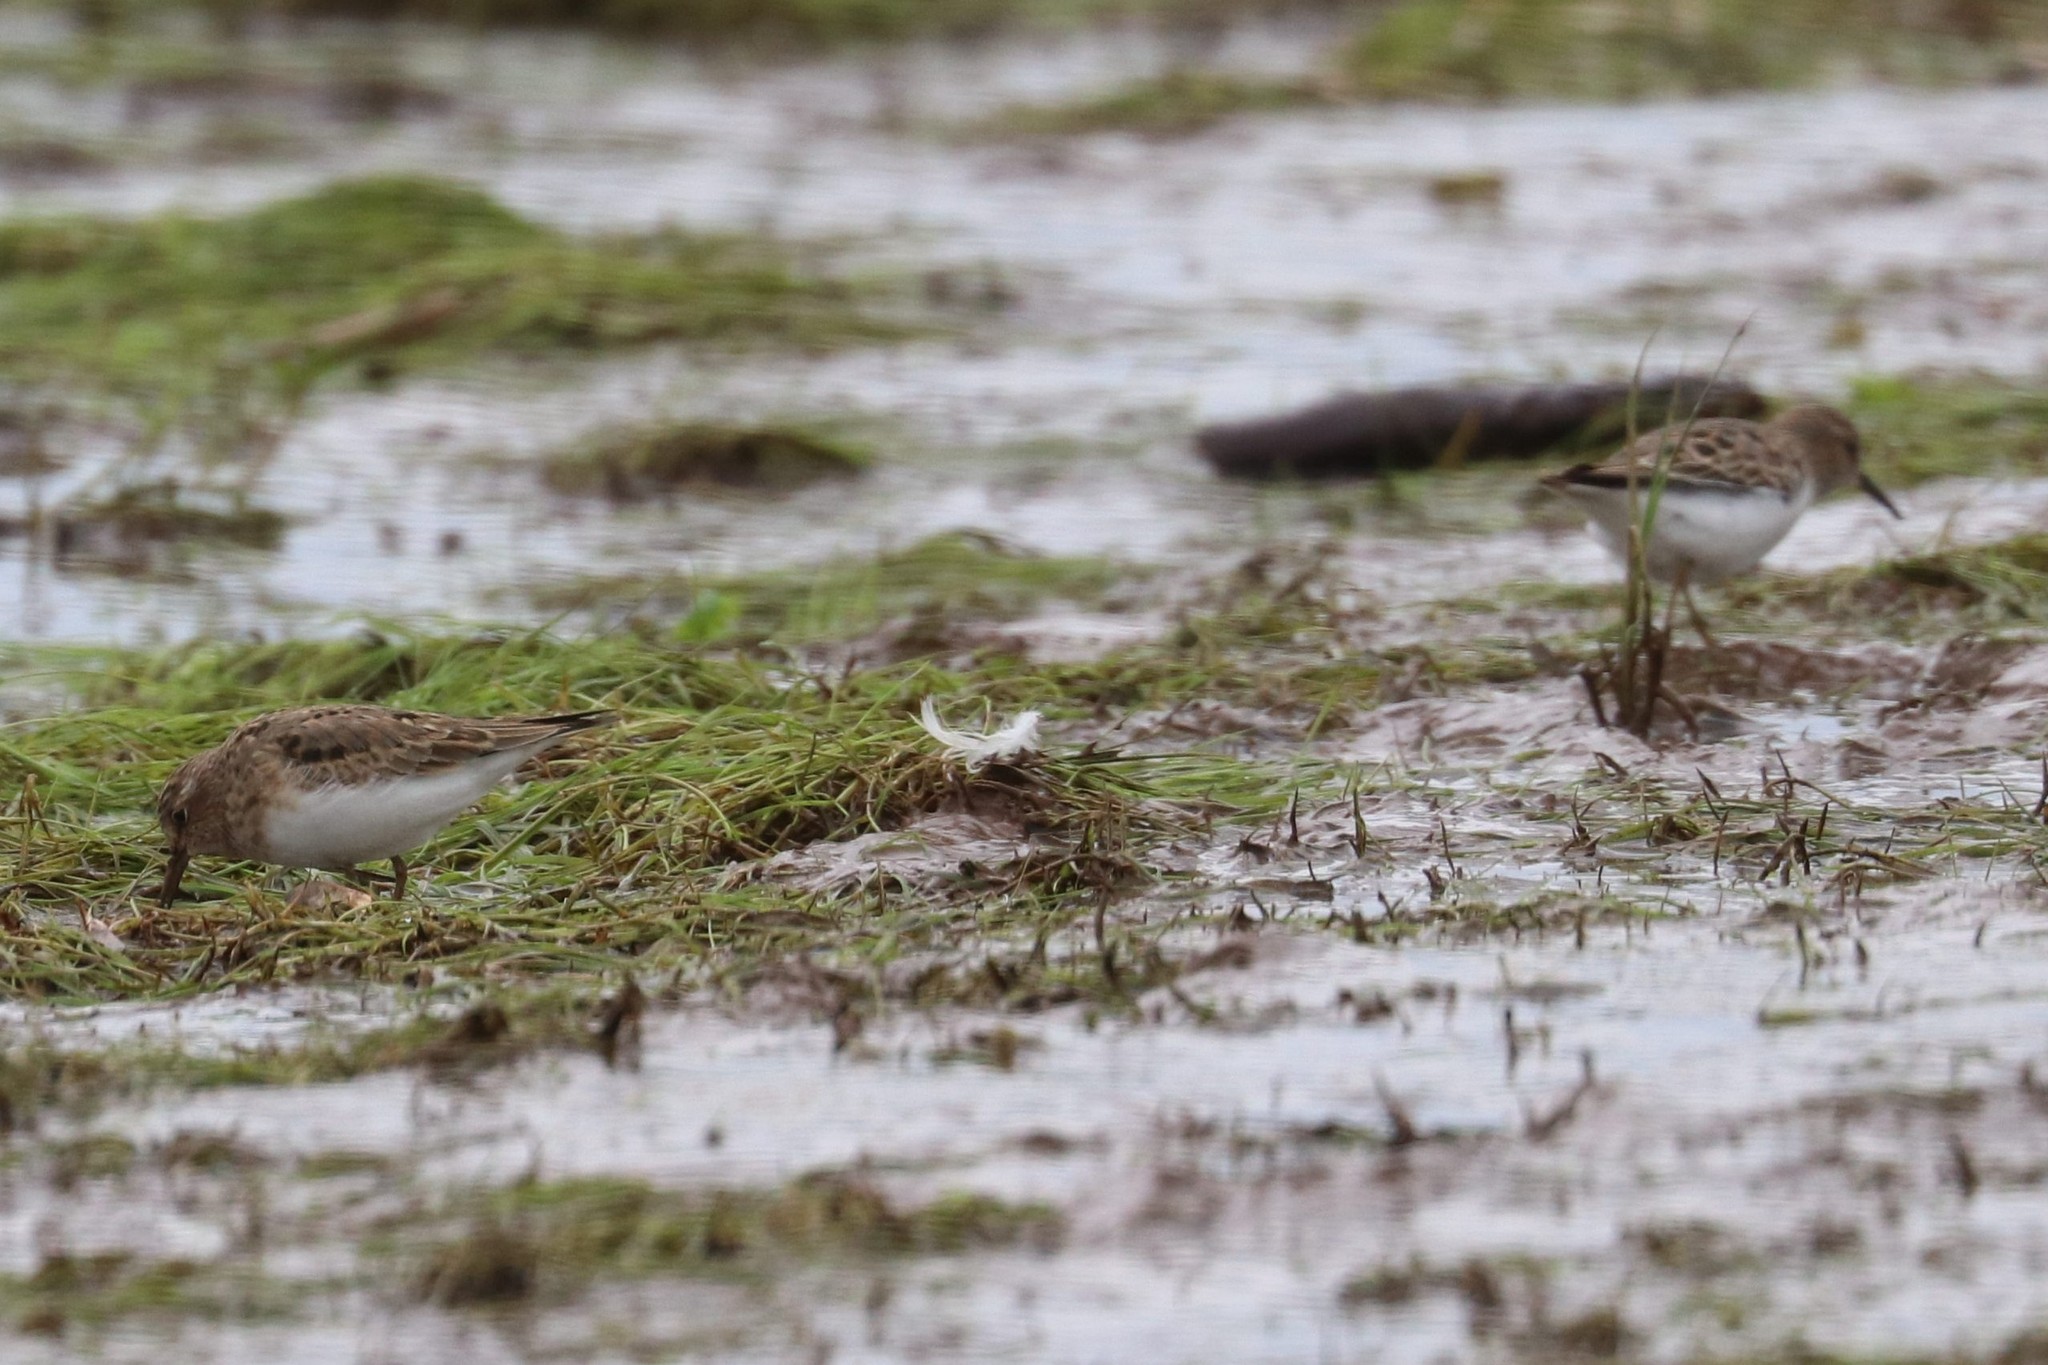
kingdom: Animalia
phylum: Chordata
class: Aves
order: Charadriiformes
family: Scolopacidae
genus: Calidris
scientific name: Calidris temminckii
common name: Temminck's stint
